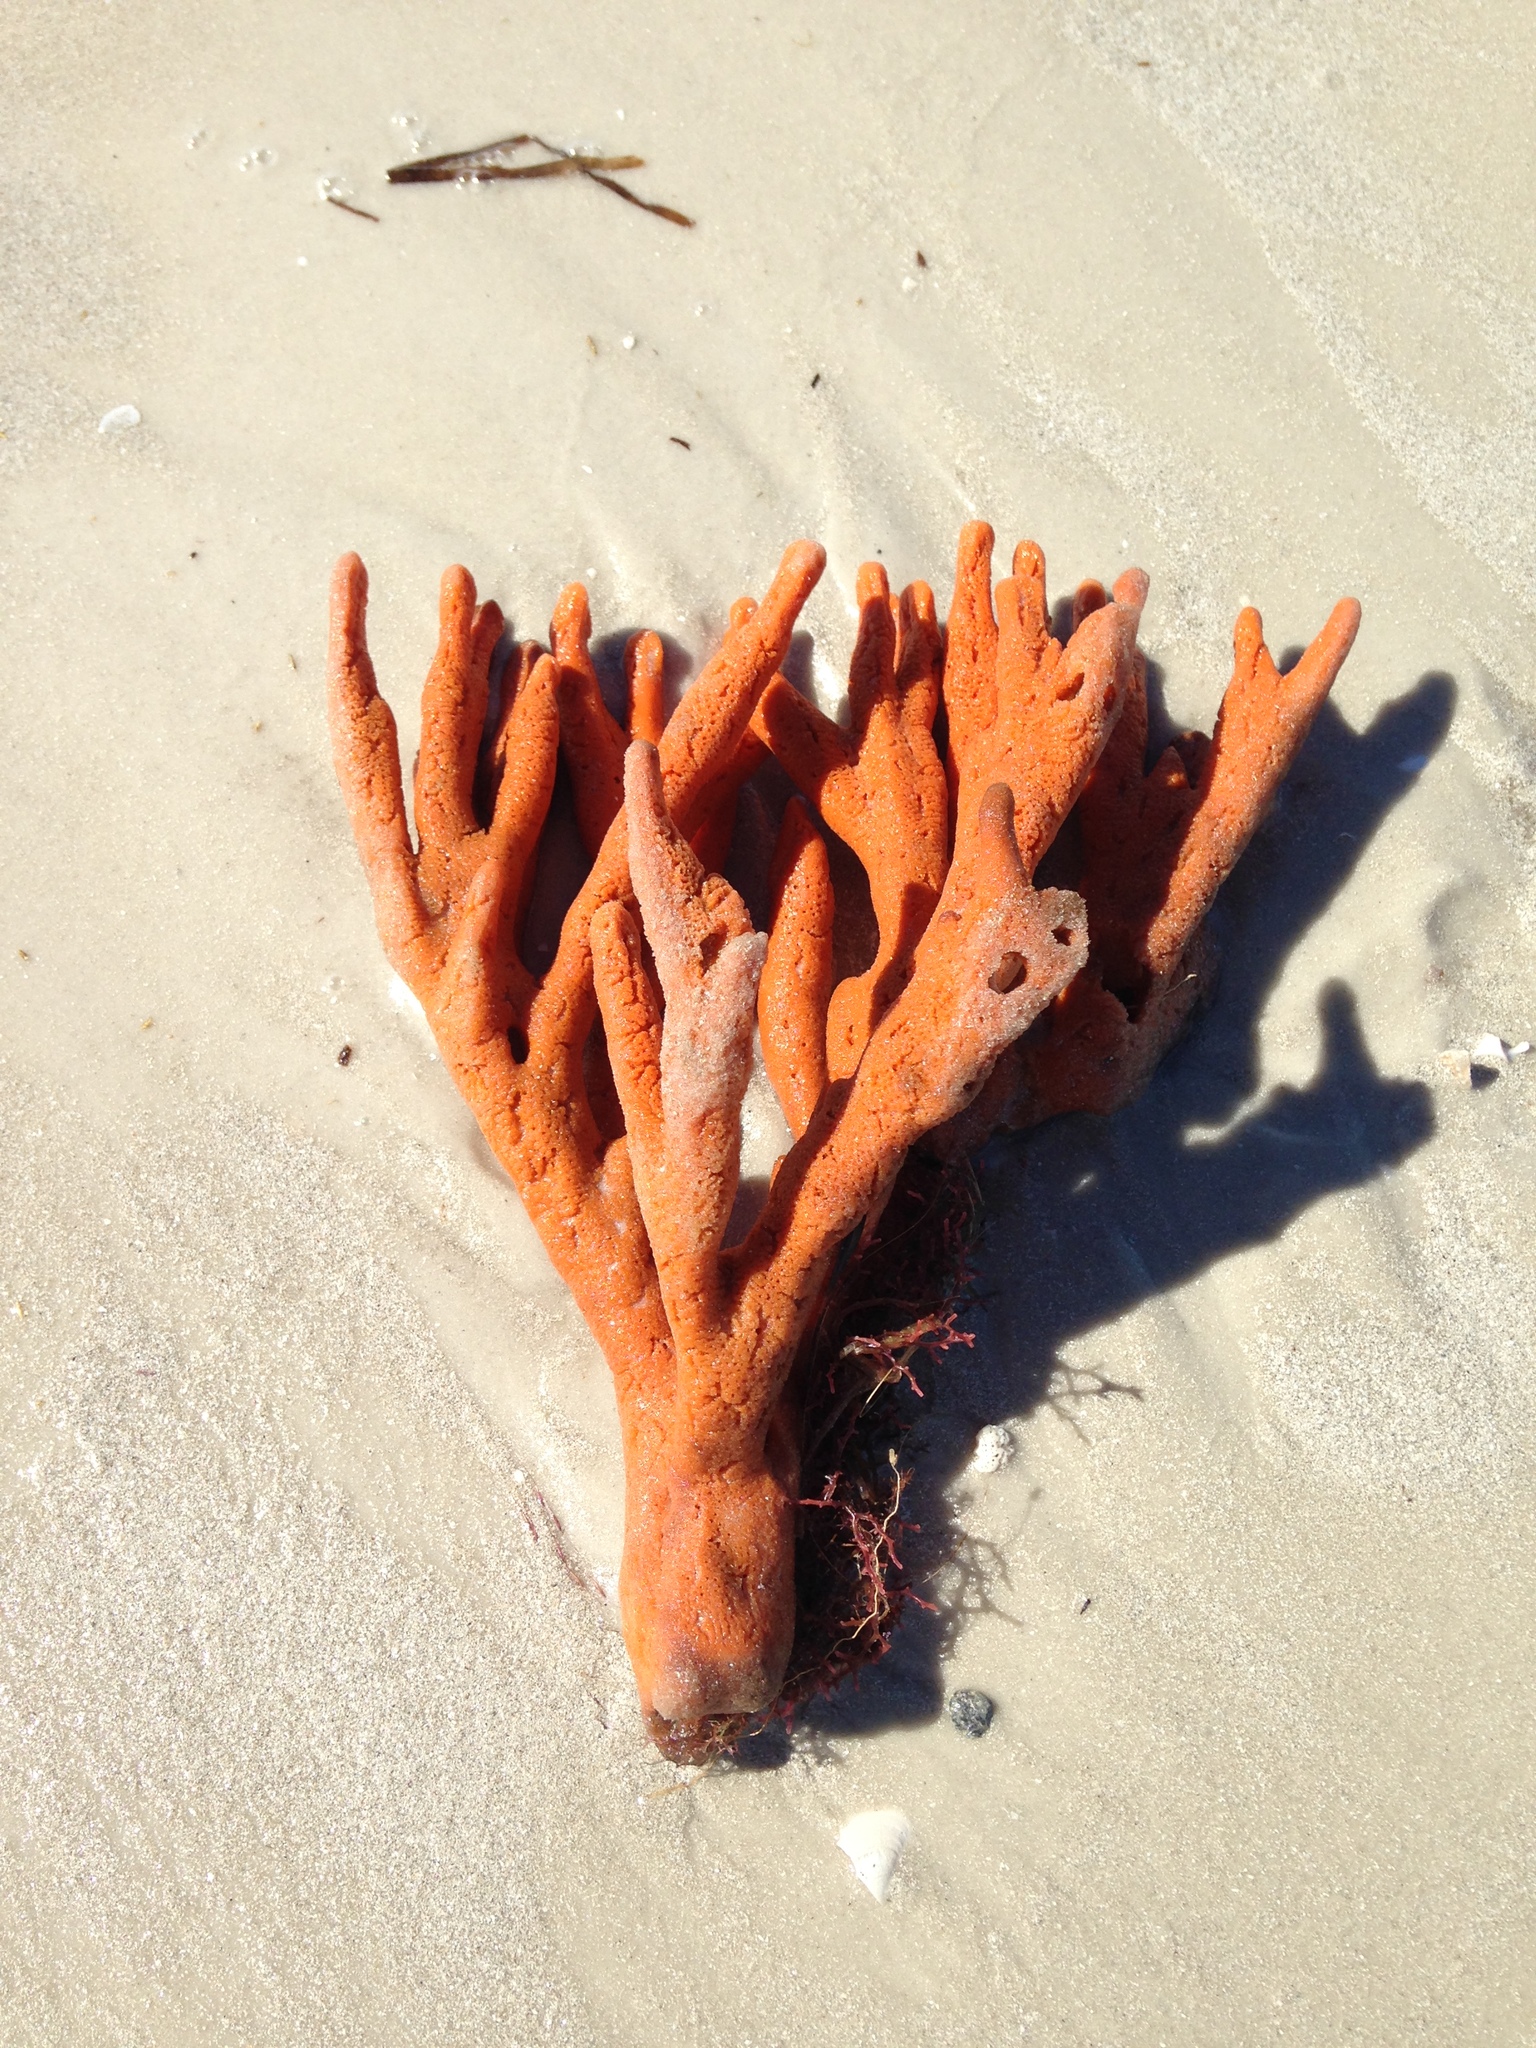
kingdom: Animalia
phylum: Porifera
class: Demospongiae
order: Axinellida
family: Axinellidae
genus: Axinella
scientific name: Axinella polycapella
